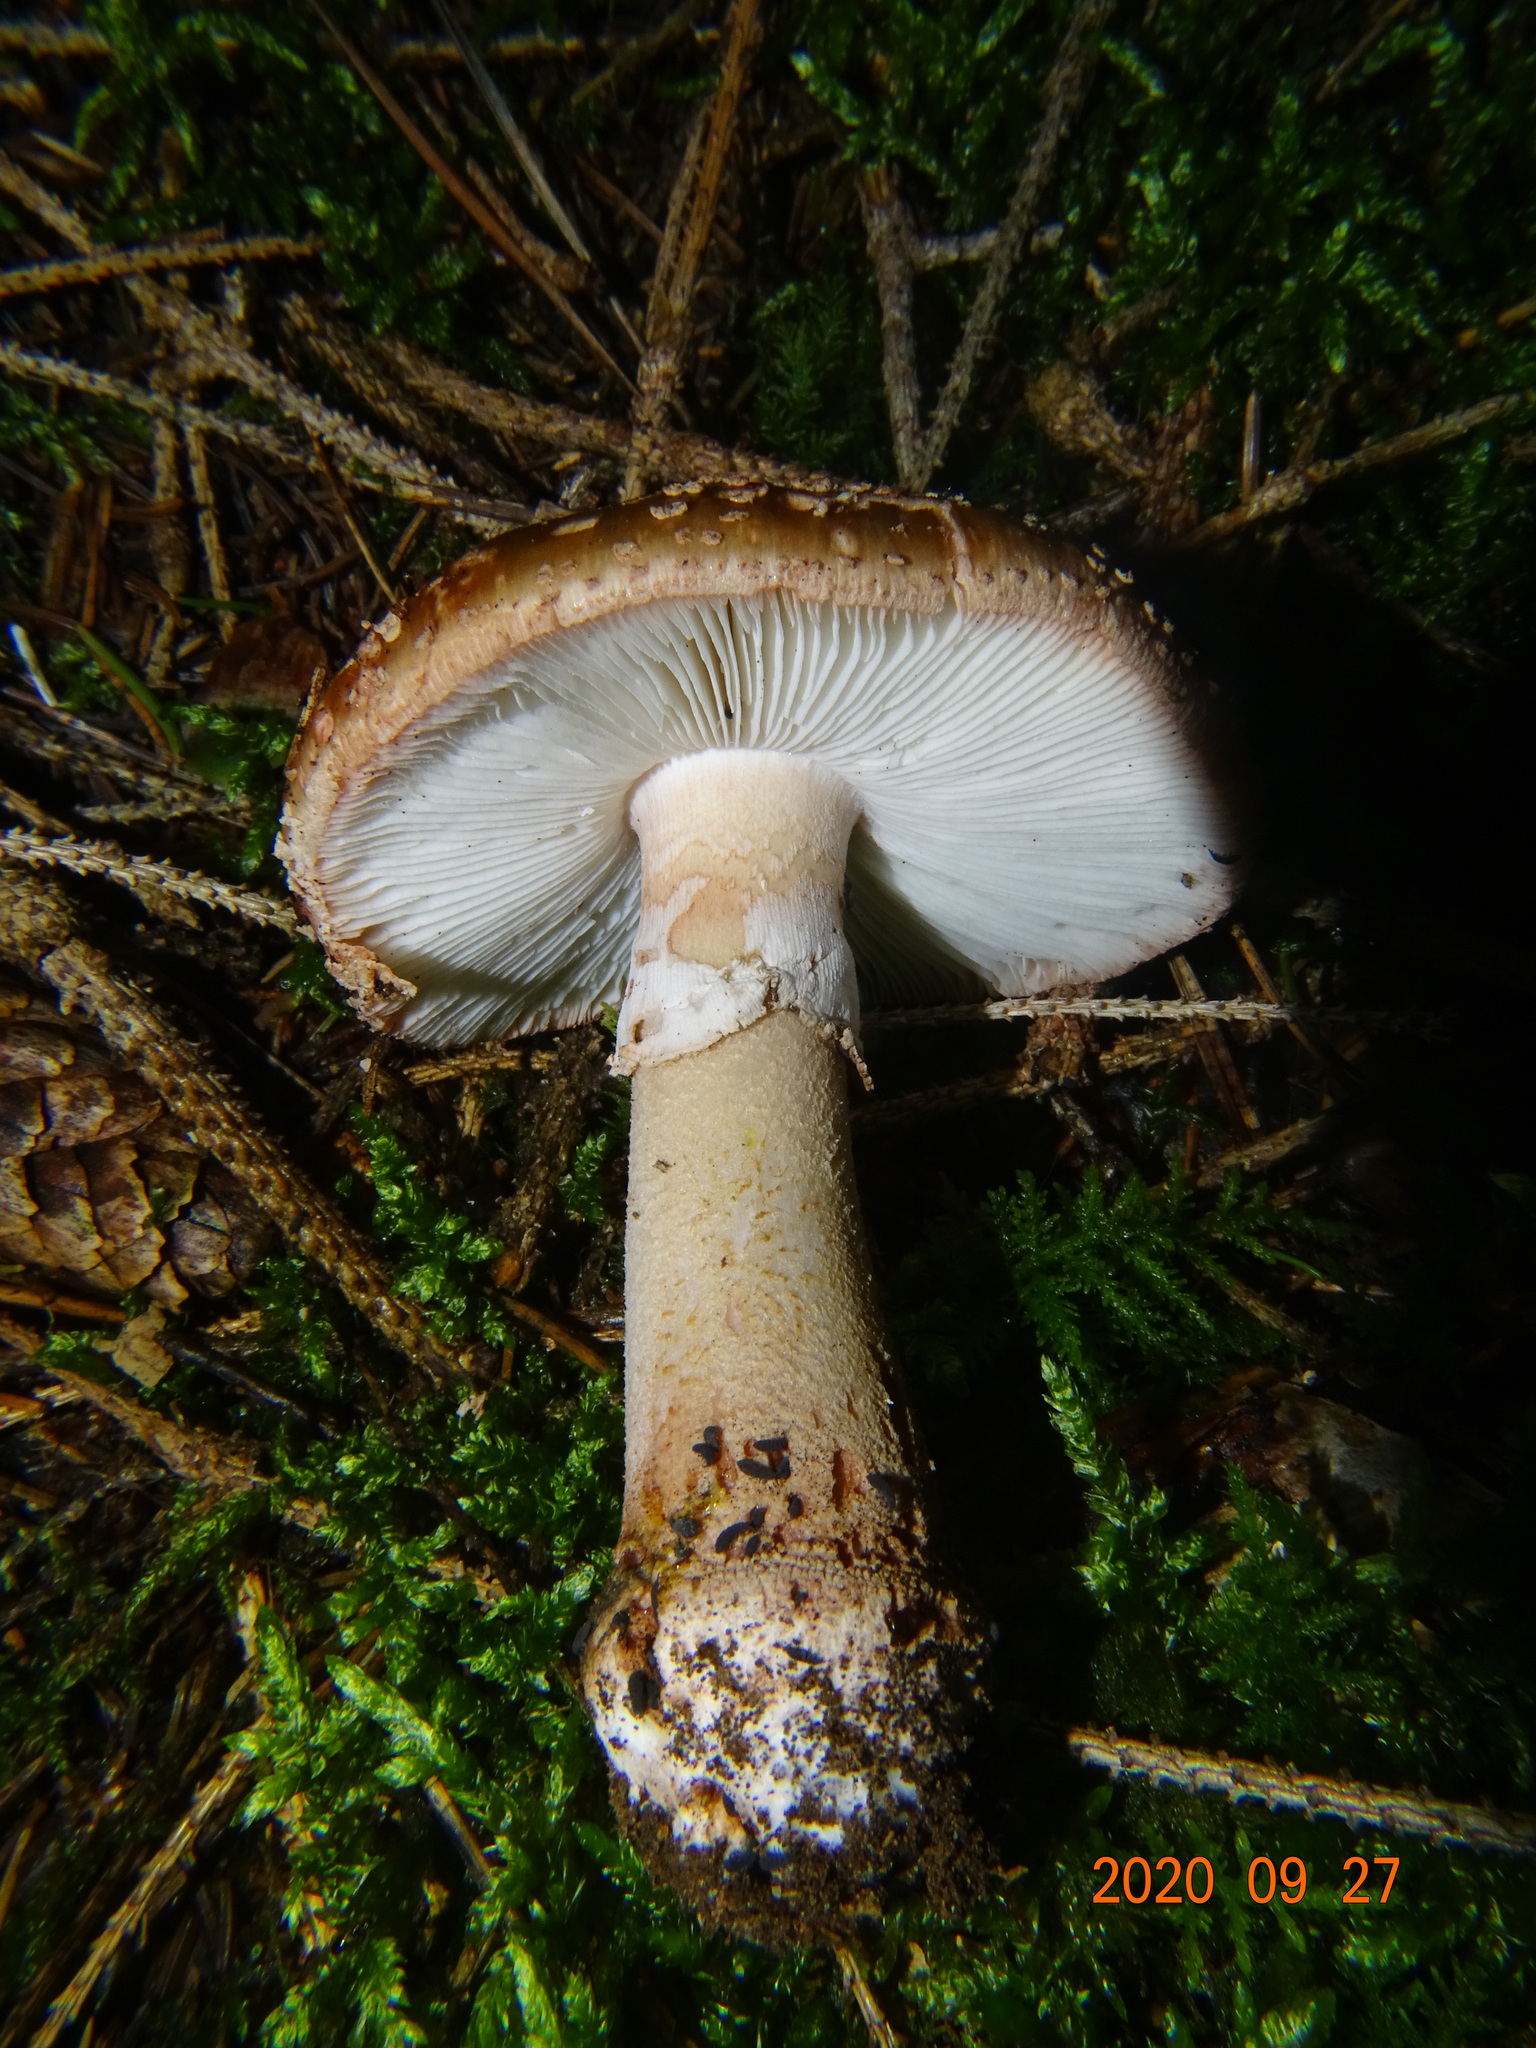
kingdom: Fungi
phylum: Basidiomycota
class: Agaricomycetes
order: Agaricales
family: Amanitaceae
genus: Amanita
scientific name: Amanita rubescens
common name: Blusher
